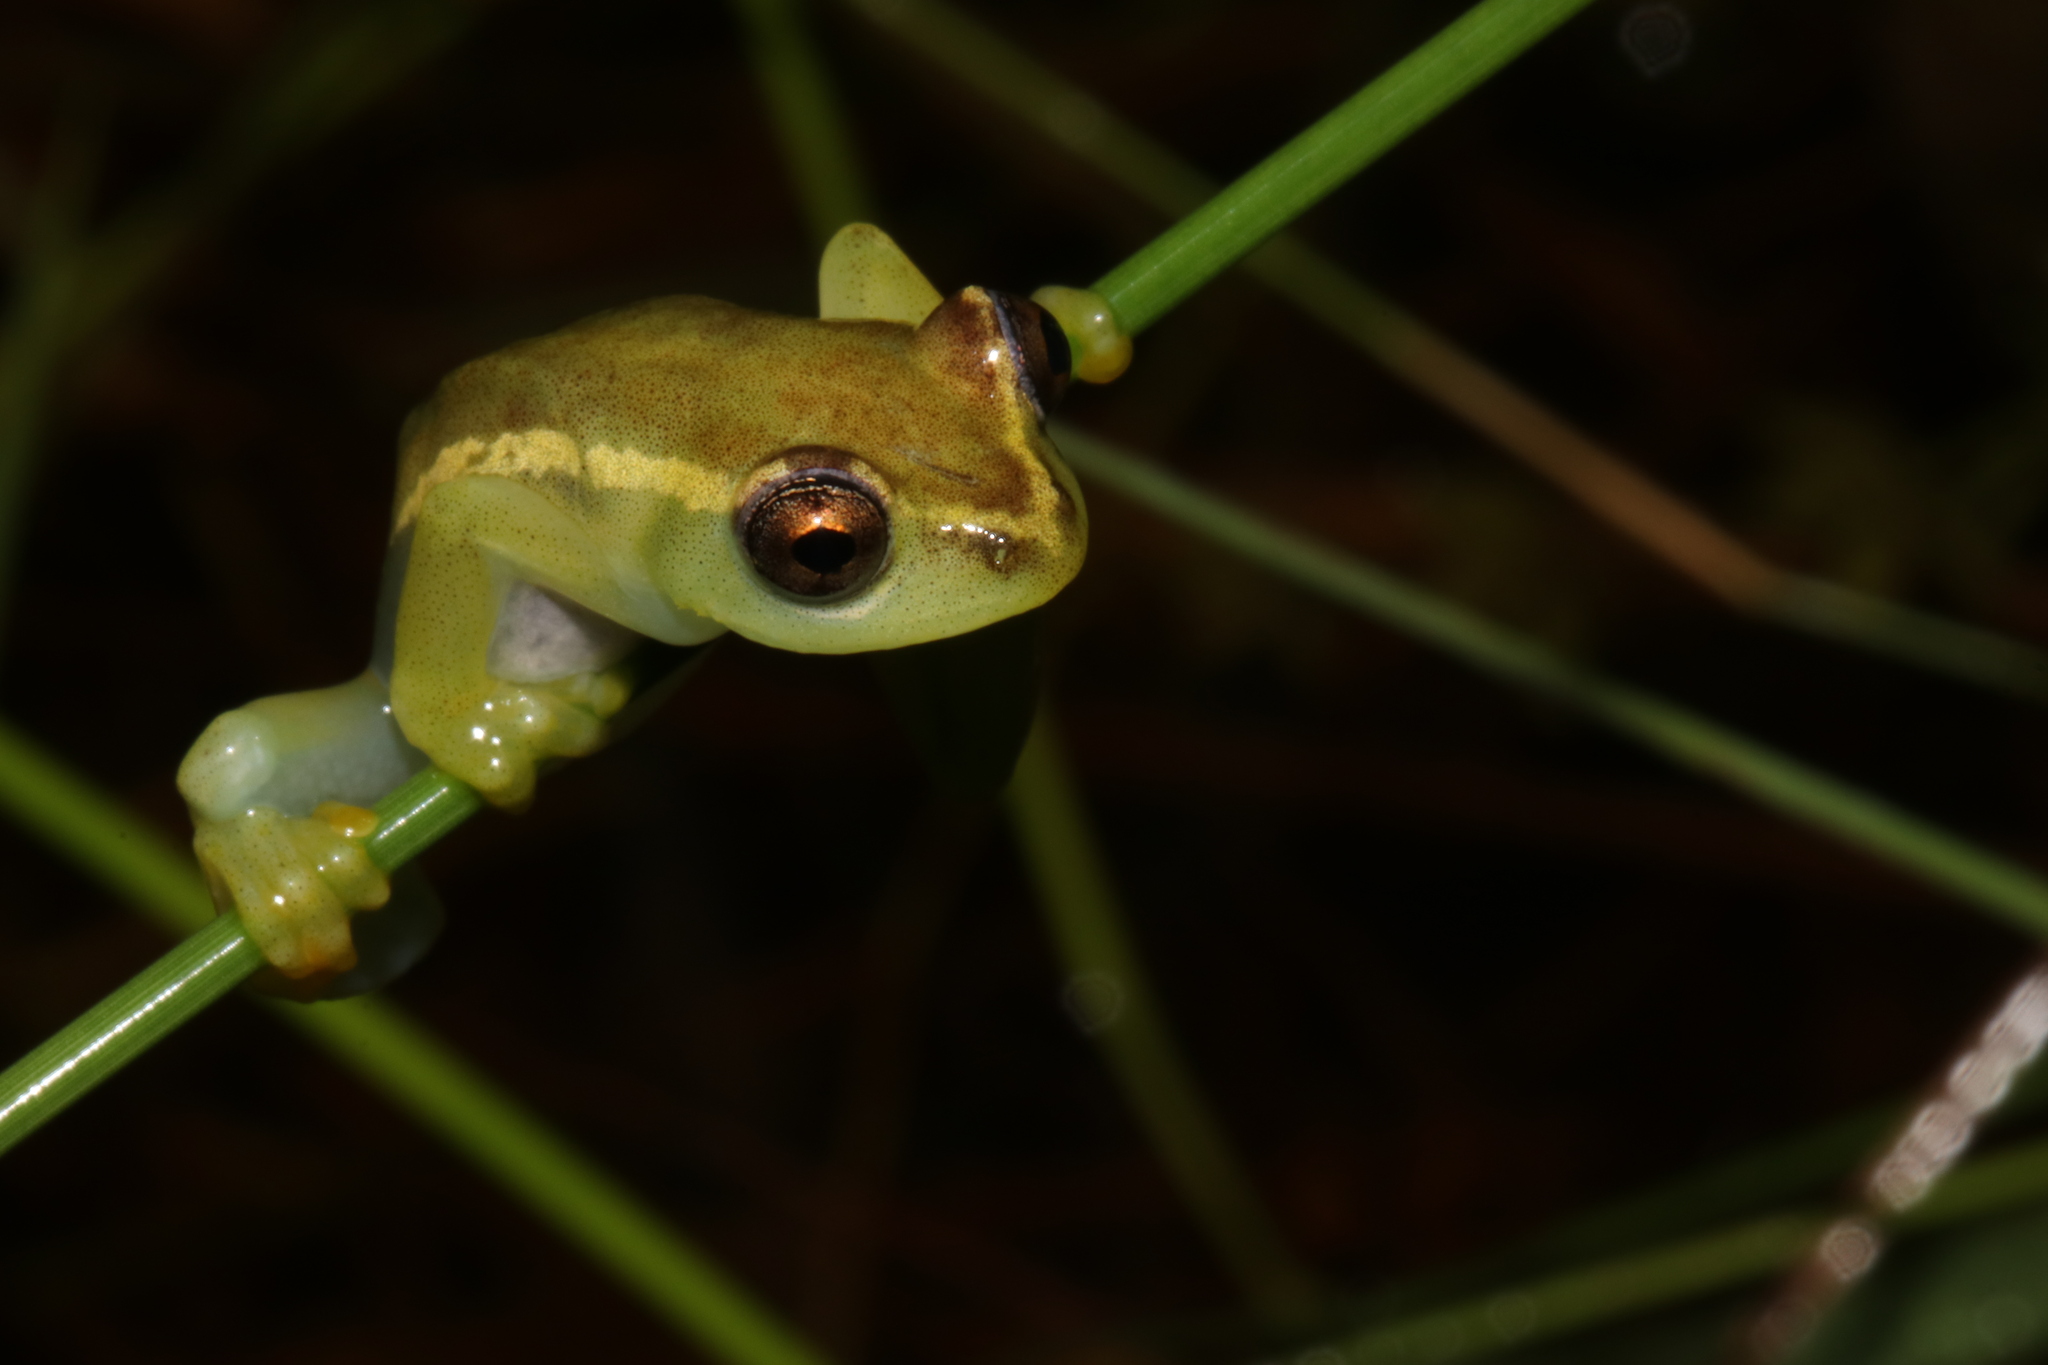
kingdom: Animalia
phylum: Chordata
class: Amphibia
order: Anura
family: Hyperoliidae
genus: Hyperolius
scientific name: Hyperolius davenporti
